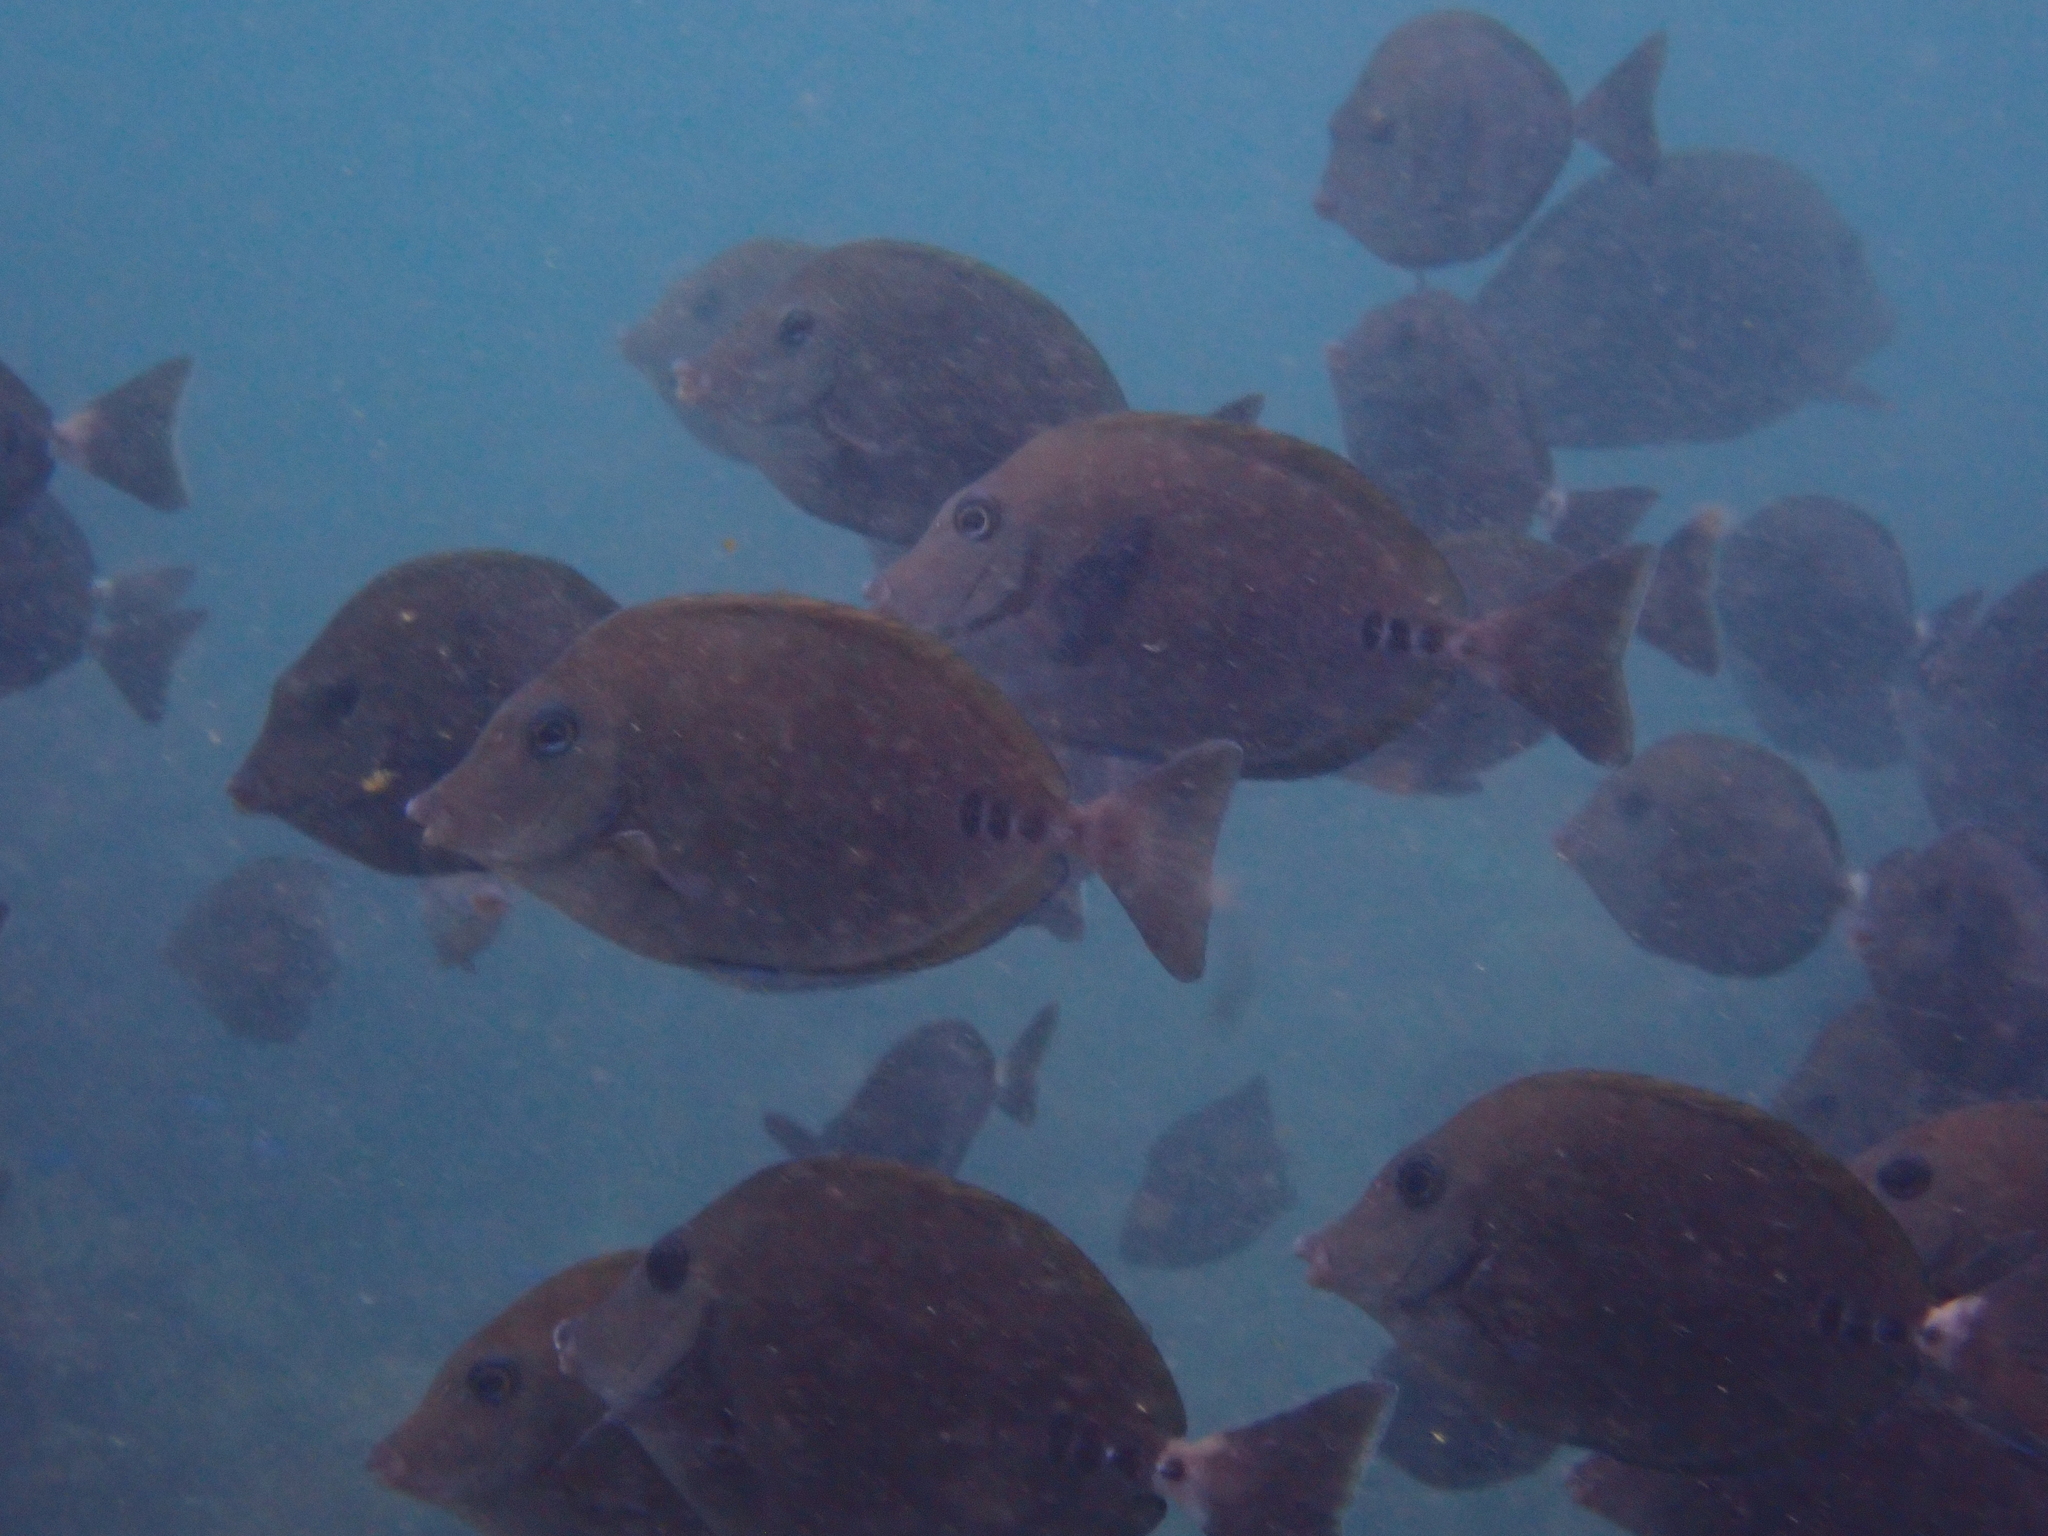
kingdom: Animalia
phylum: Chordata
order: Perciformes
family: Acanthuridae
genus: Prionurus
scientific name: Prionurus scalprum
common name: Japanese sawtail
